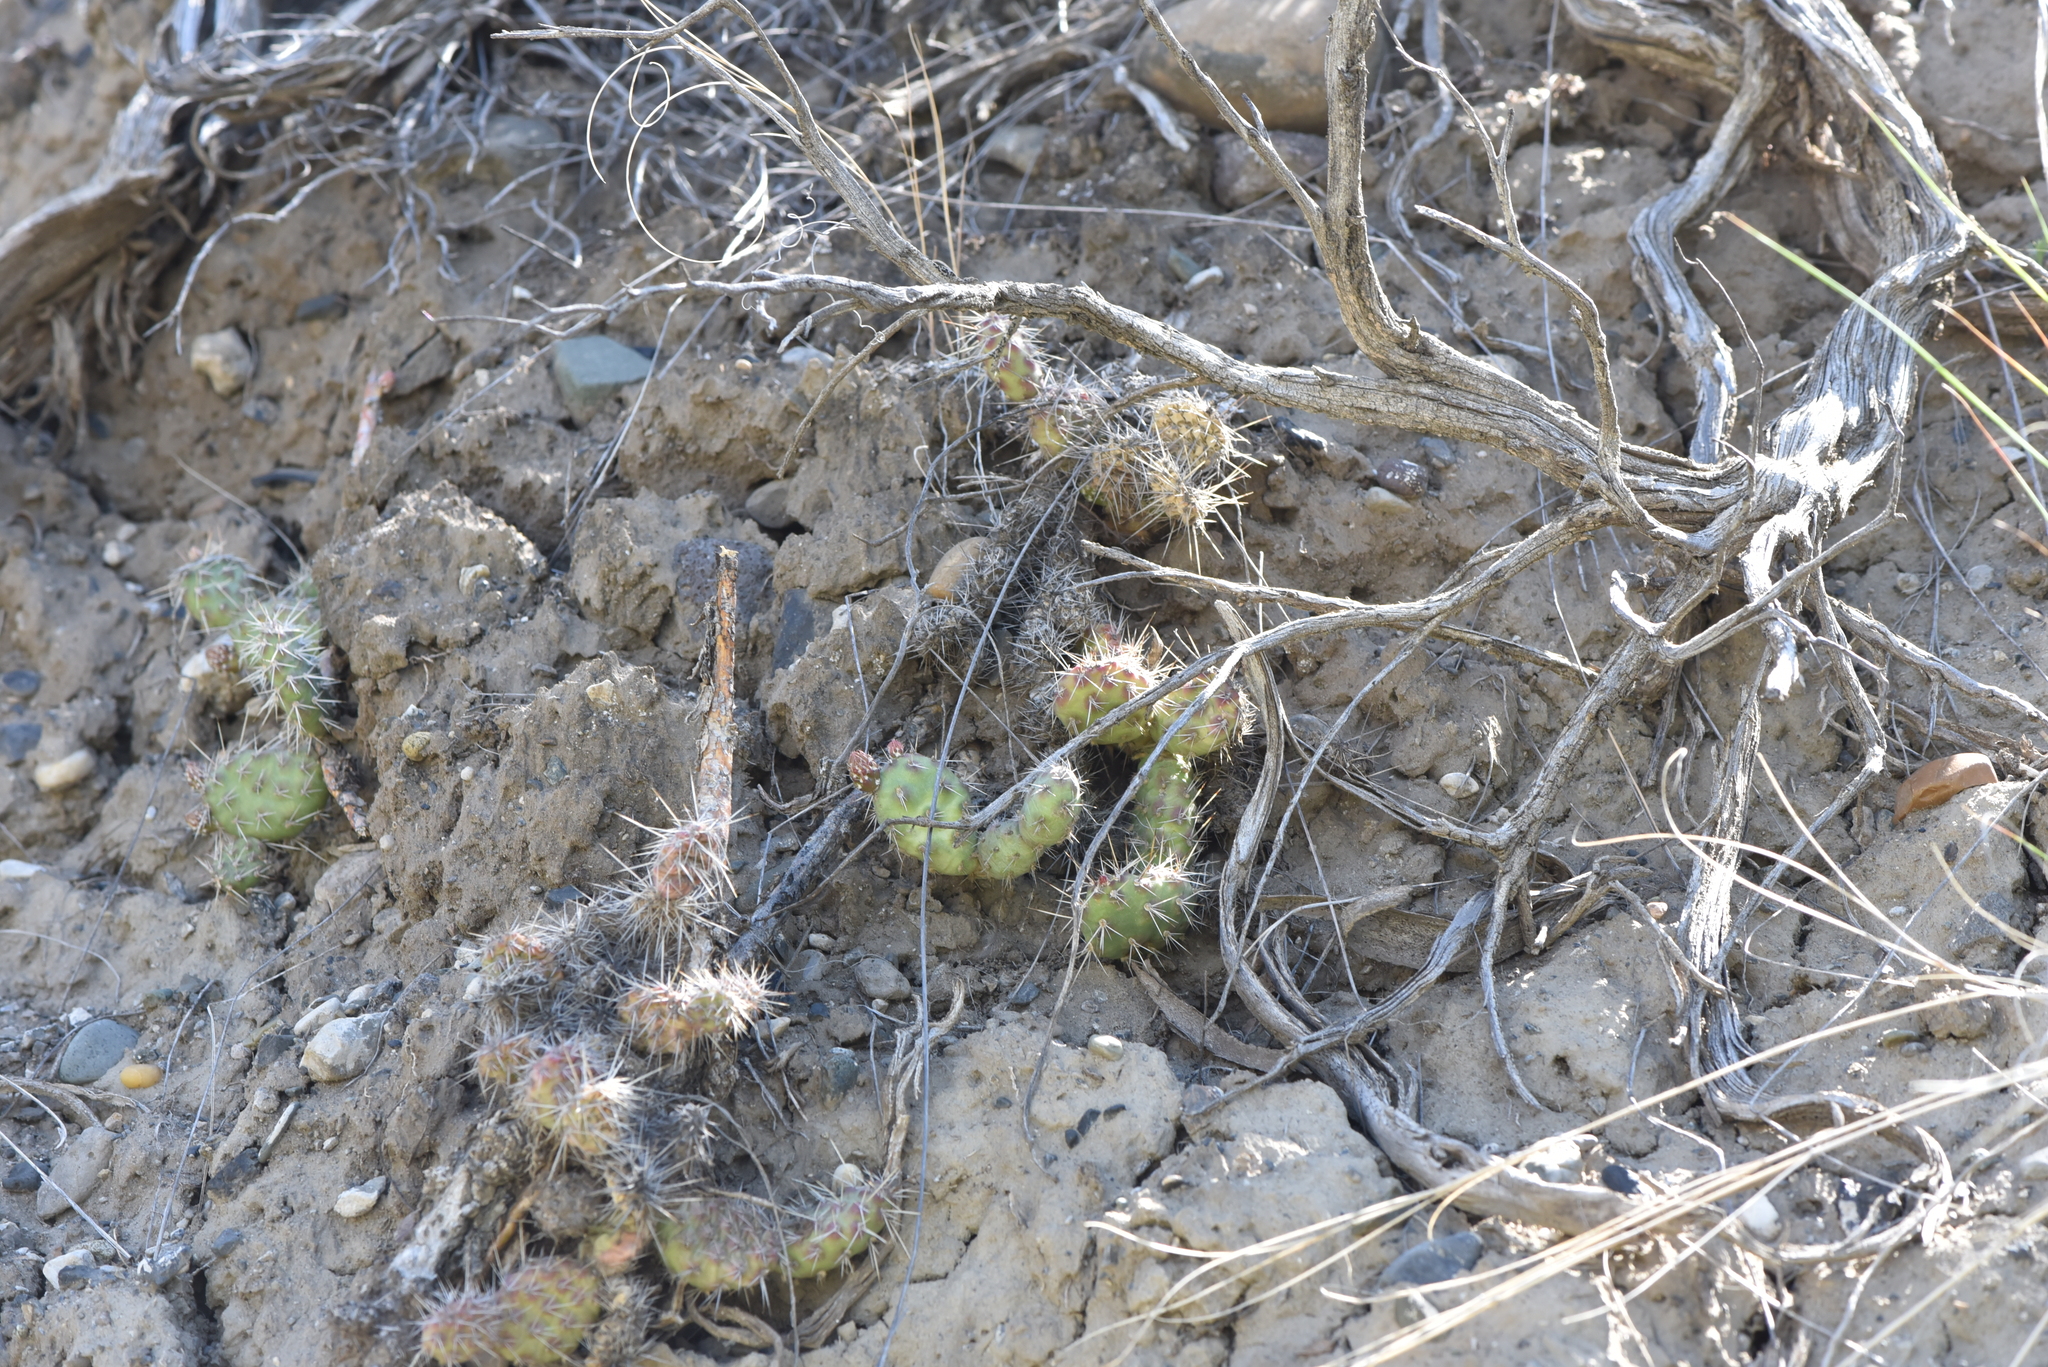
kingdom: Plantae
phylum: Tracheophyta
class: Magnoliopsida
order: Caryophyllales
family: Cactaceae
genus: Opuntia
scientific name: Opuntia fragilis
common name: Brittle cactus
